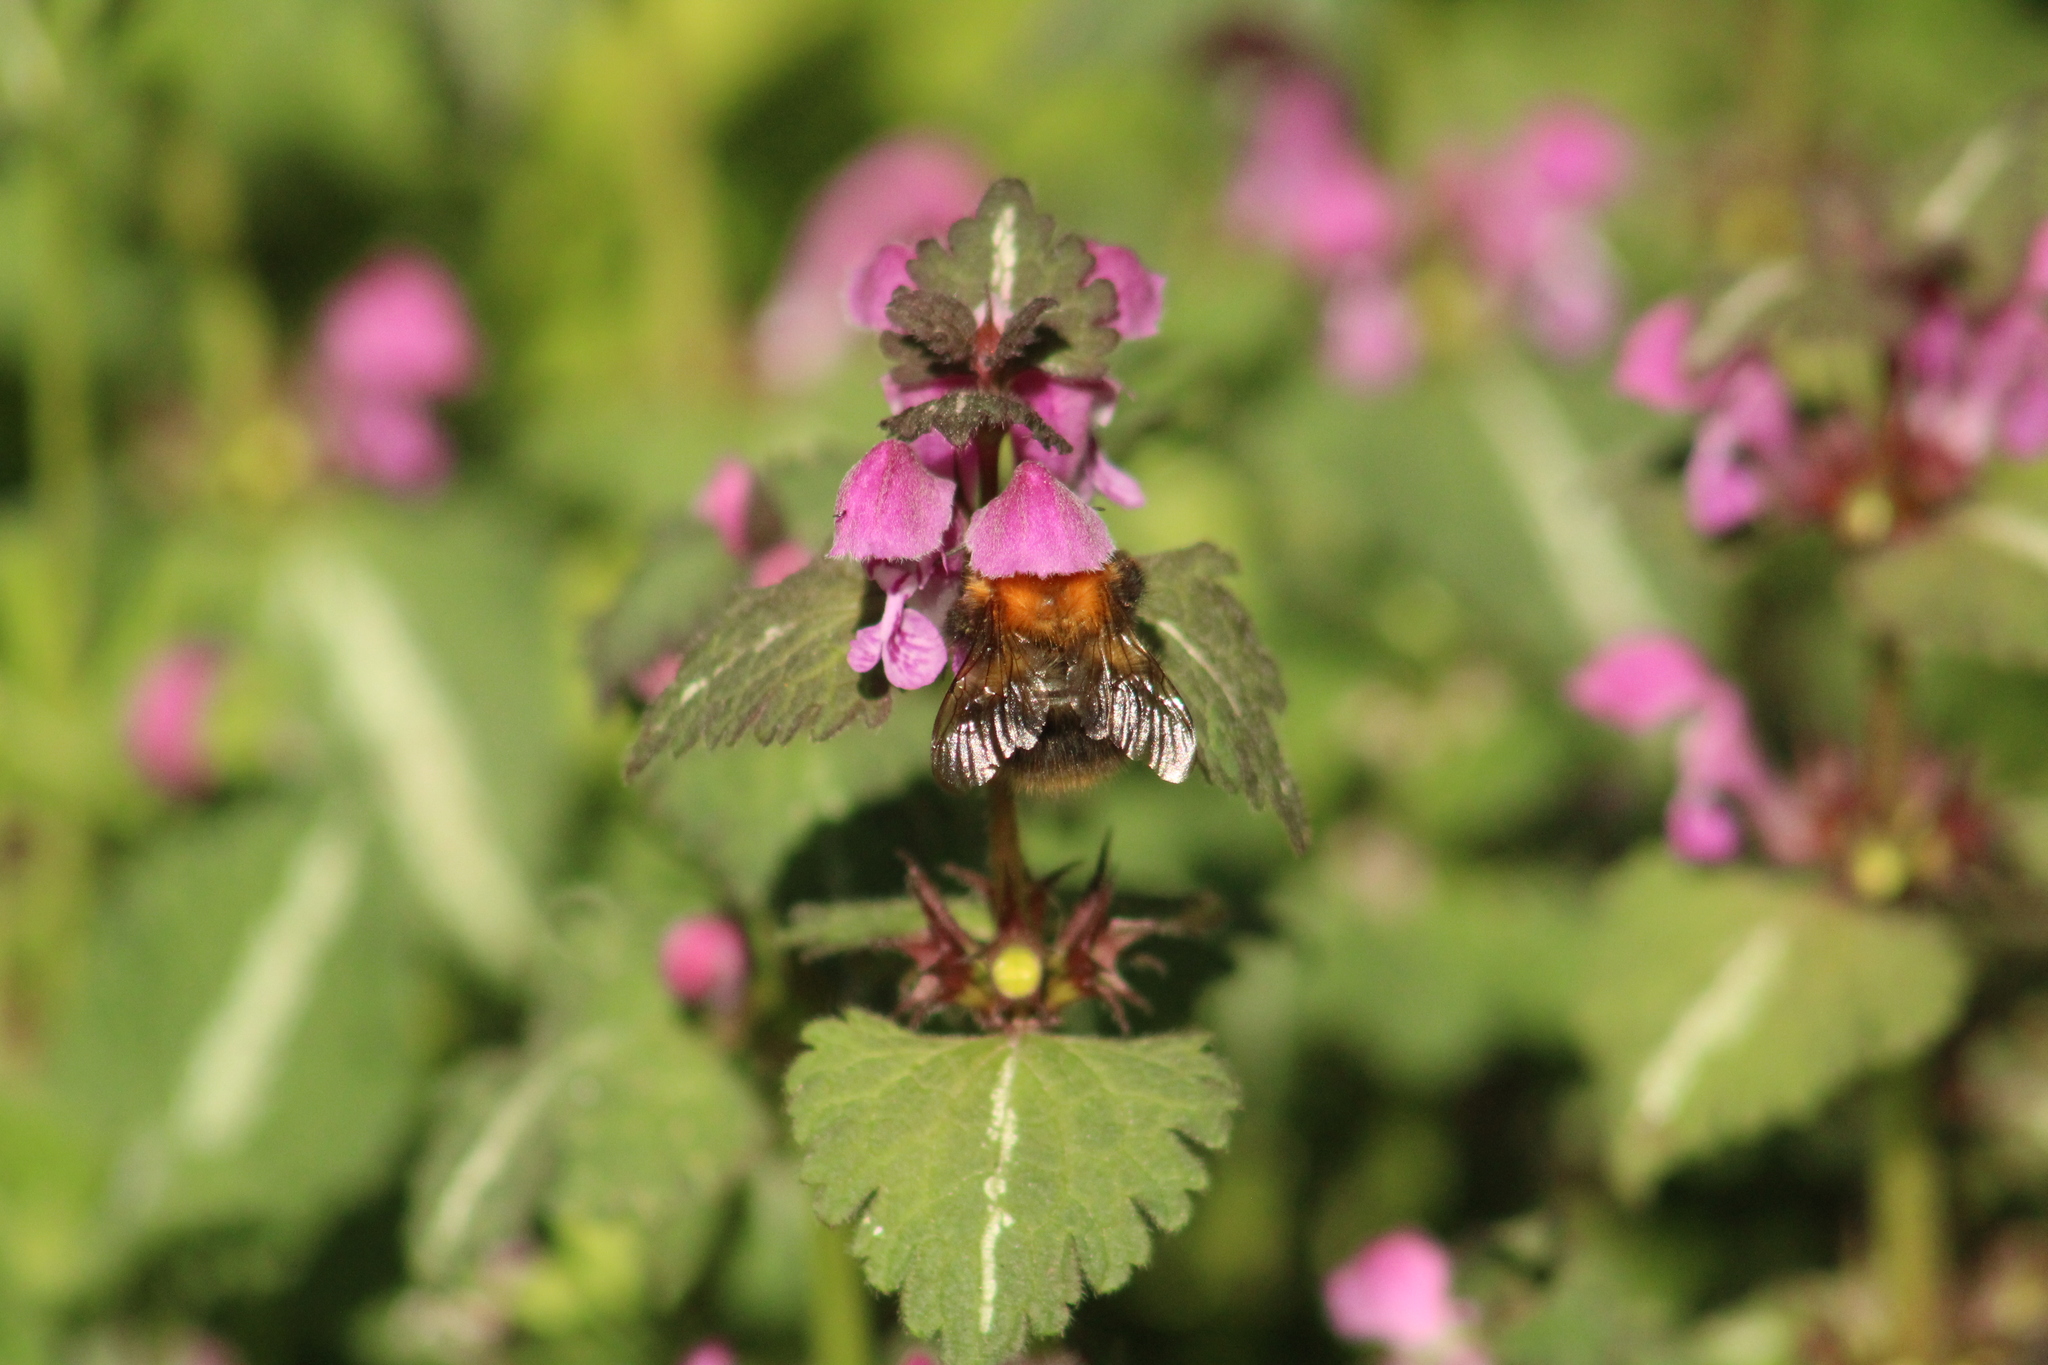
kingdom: Animalia
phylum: Arthropoda
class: Insecta
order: Hymenoptera
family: Apidae
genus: Bombus
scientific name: Bombus pascuorum
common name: Common carder bee
